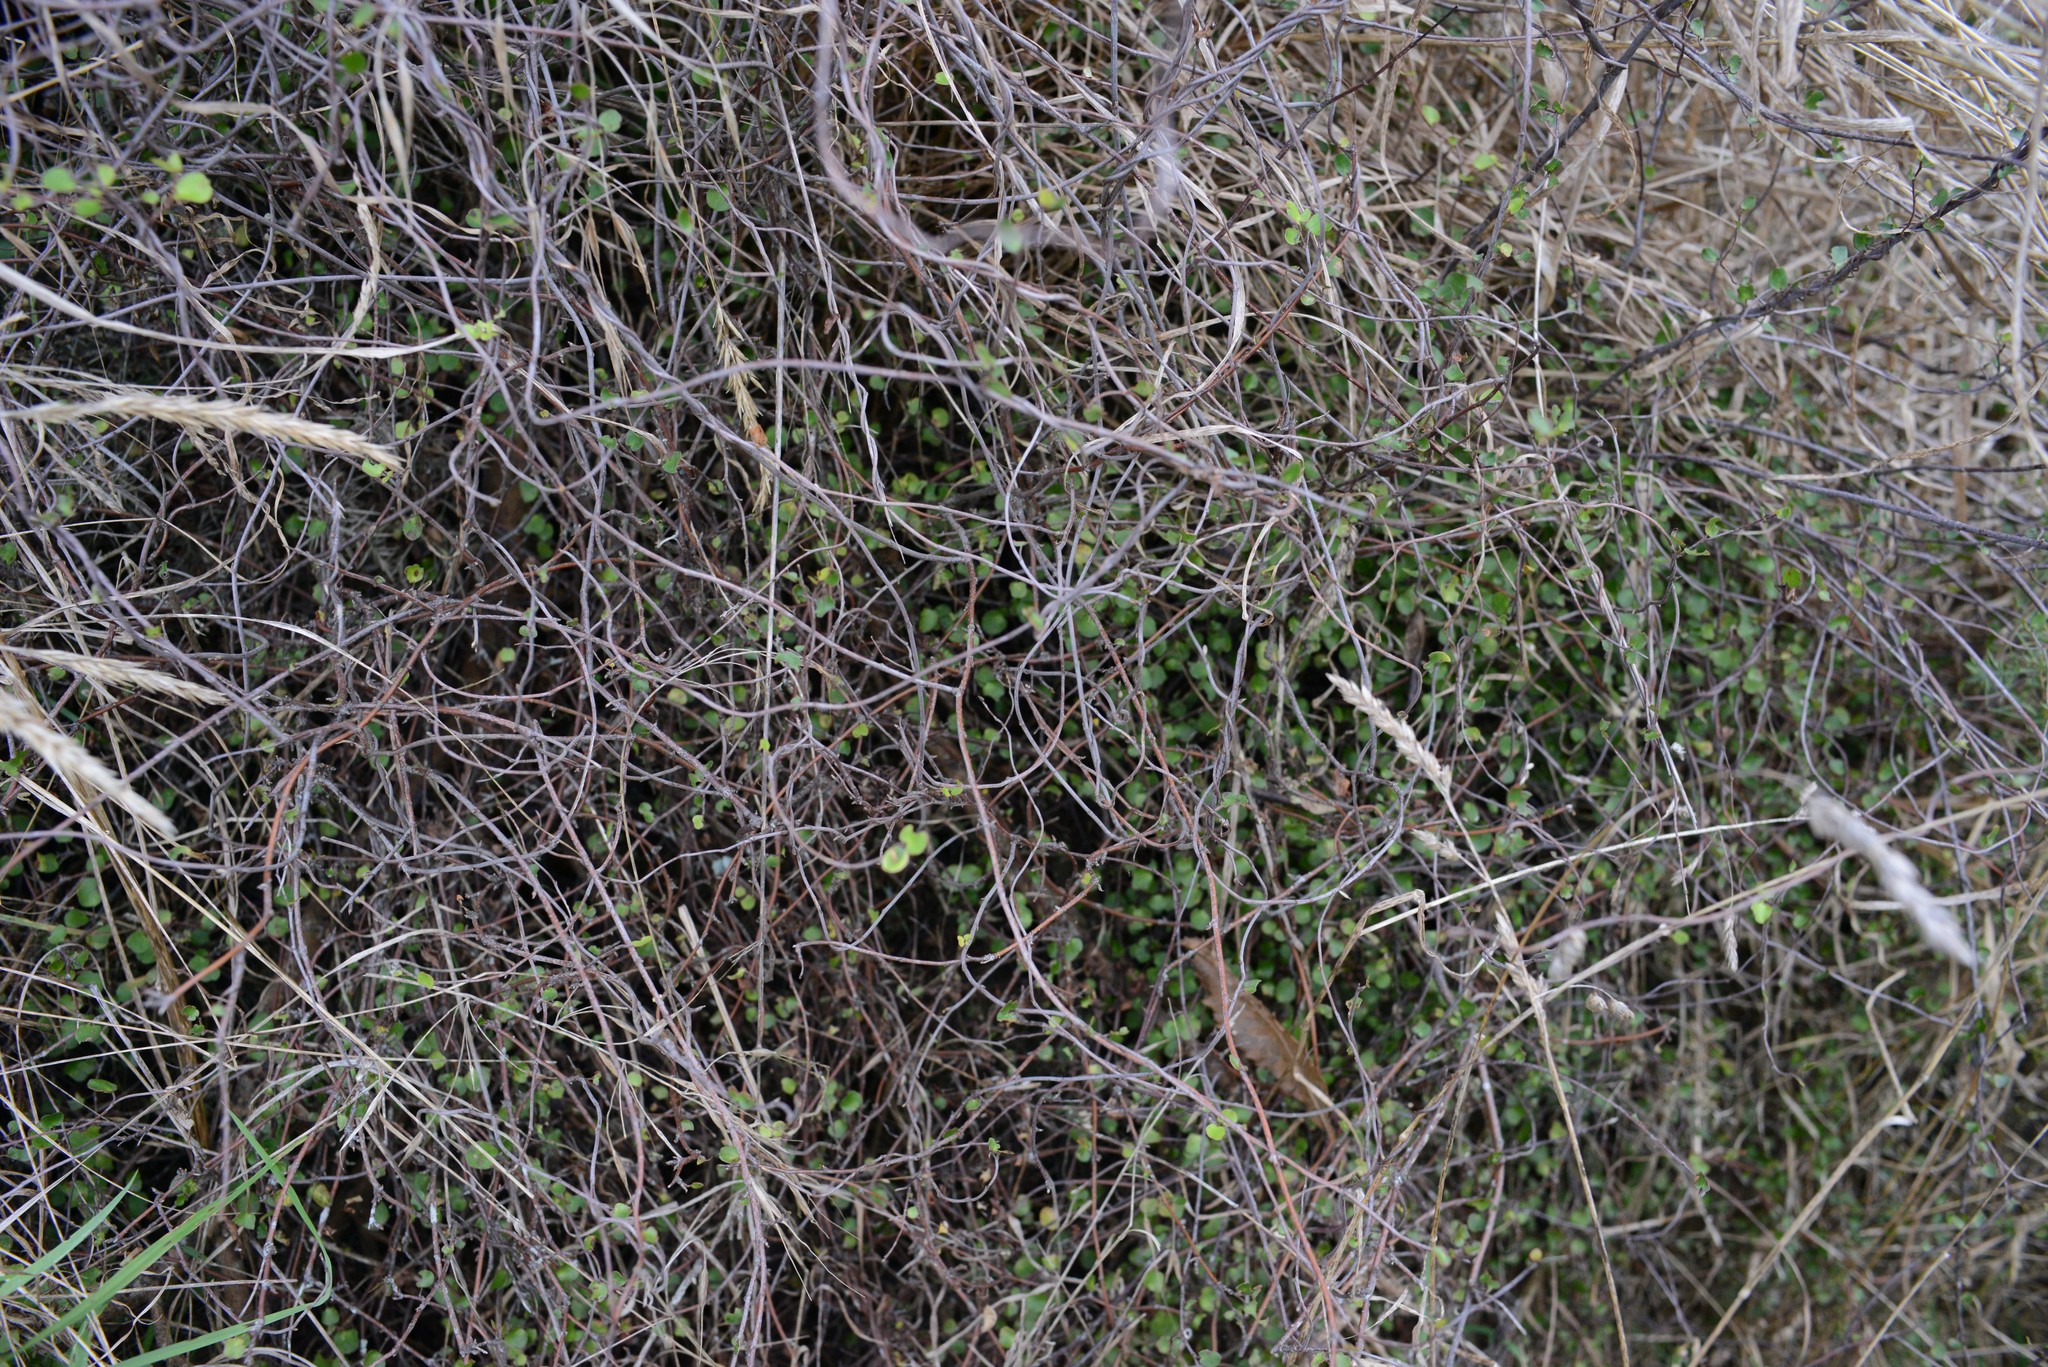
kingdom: Plantae
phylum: Tracheophyta
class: Magnoliopsida
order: Caryophyllales
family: Polygonaceae
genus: Muehlenbeckia
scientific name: Muehlenbeckia complexa
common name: Wireplant
